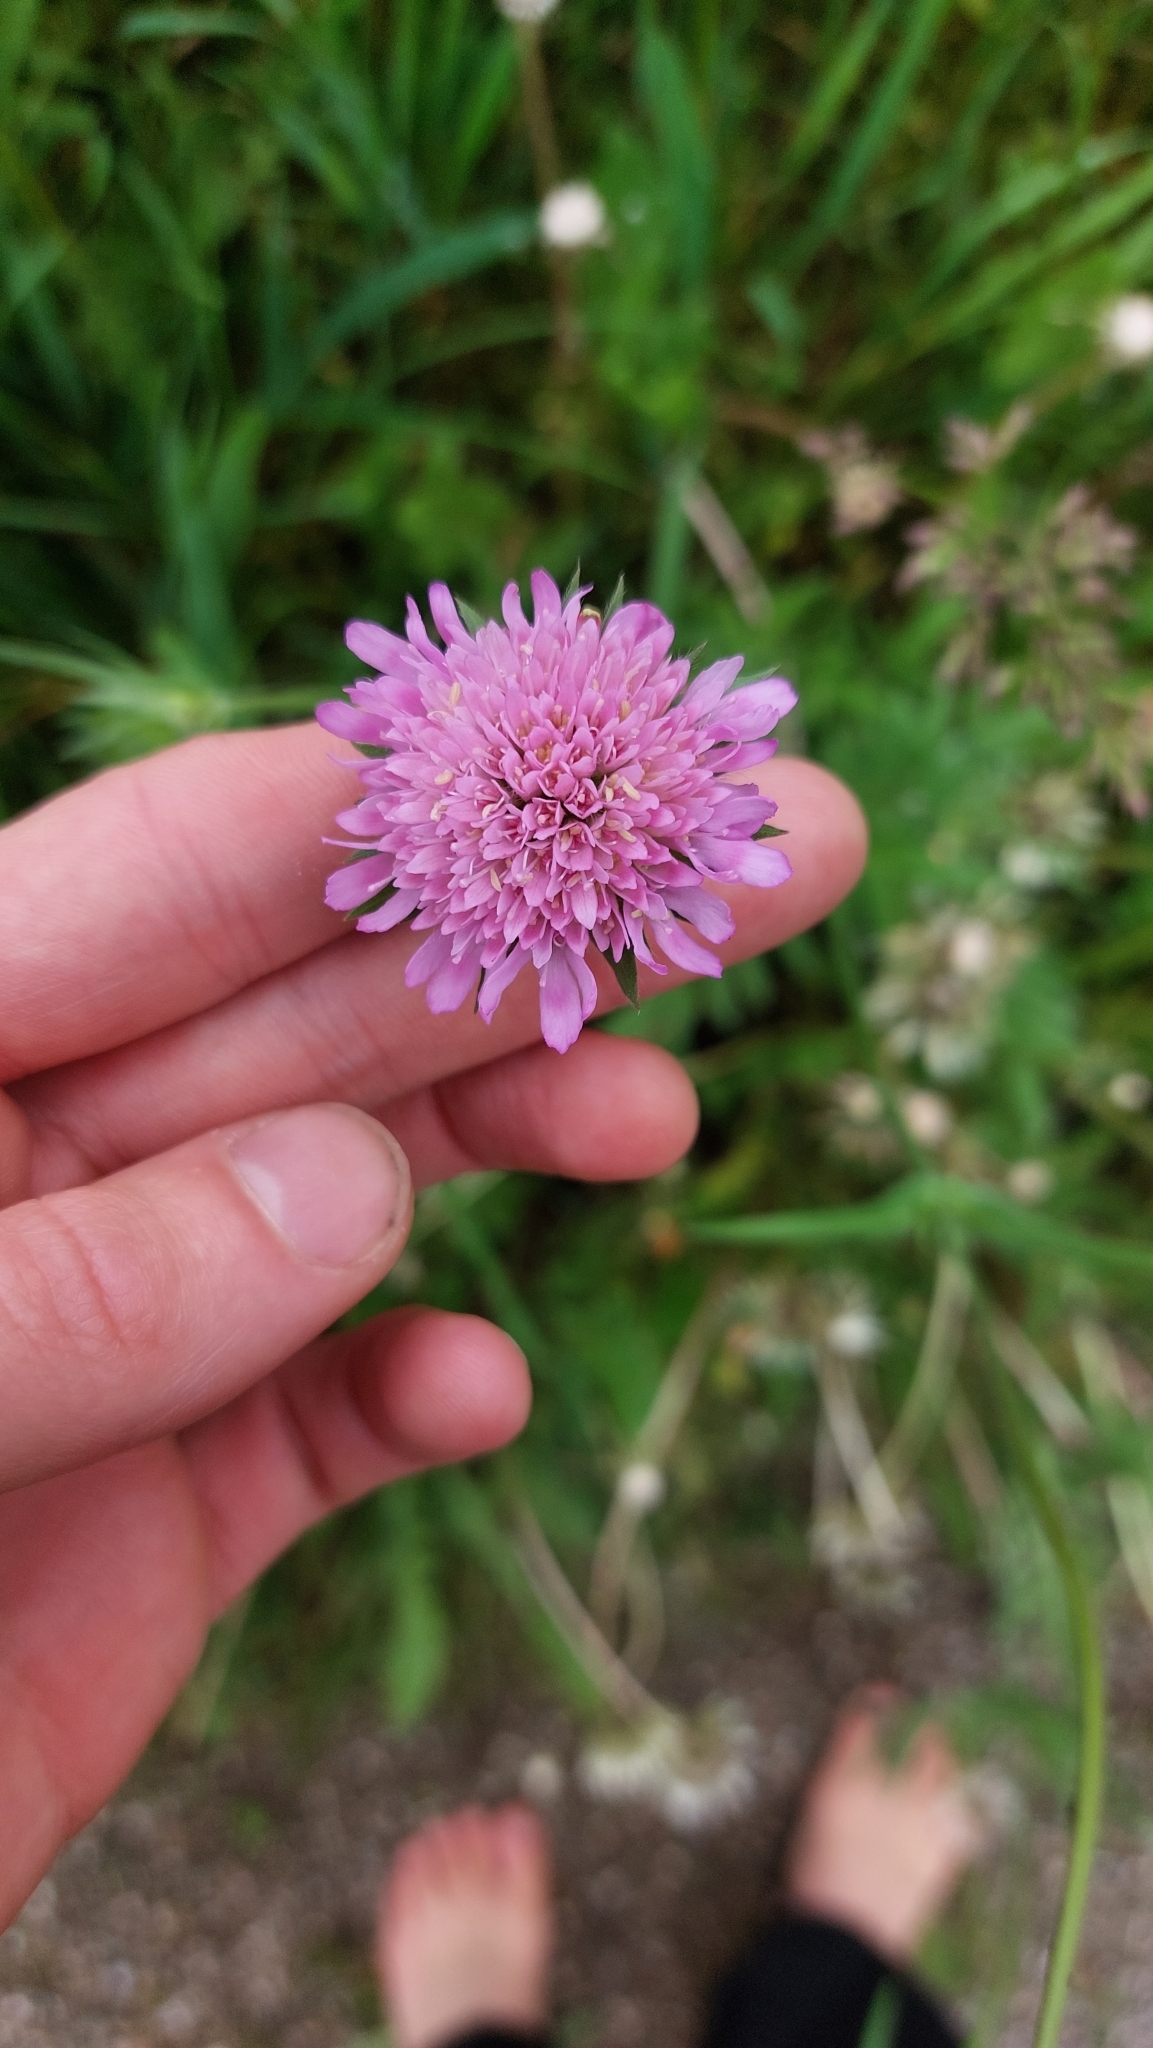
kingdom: Plantae
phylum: Tracheophyta
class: Magnoliopsida
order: Dipsacales
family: Caprifoliaceae
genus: Knautia
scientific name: Knautia arvensis
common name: Field scabiosa
